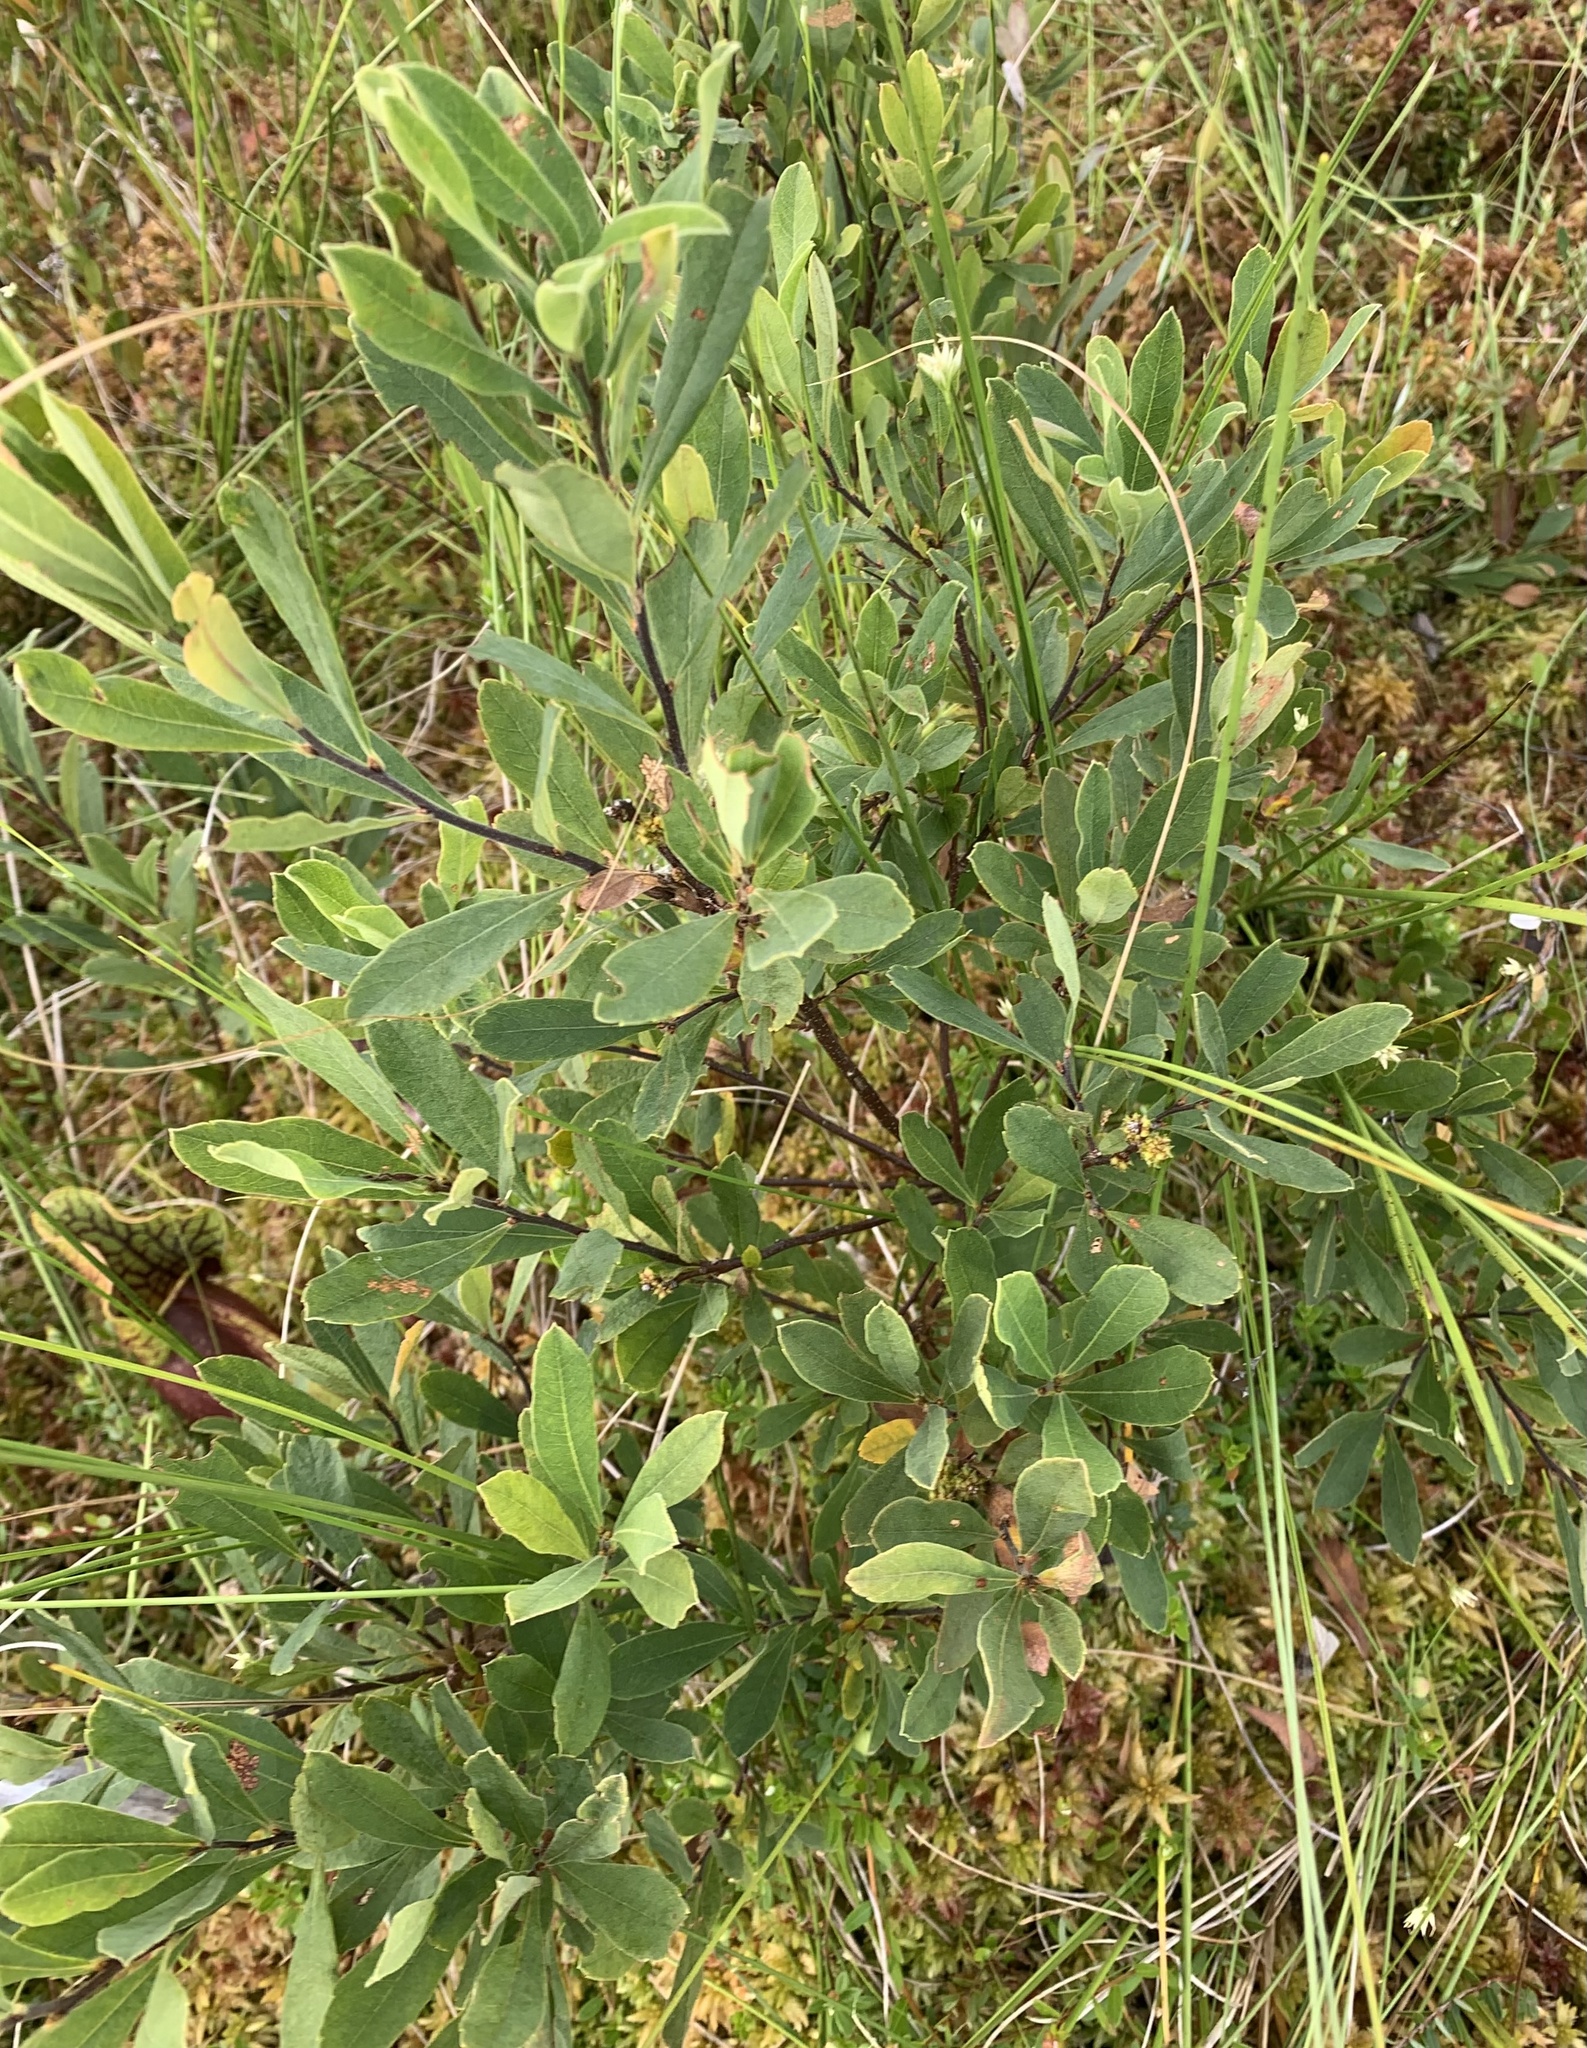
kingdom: Plantae
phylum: Tracheophyta
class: Magnoliopsida
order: Fagales
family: Myricaceae
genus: Myrica
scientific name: Myrica gale
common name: Sweet gale
